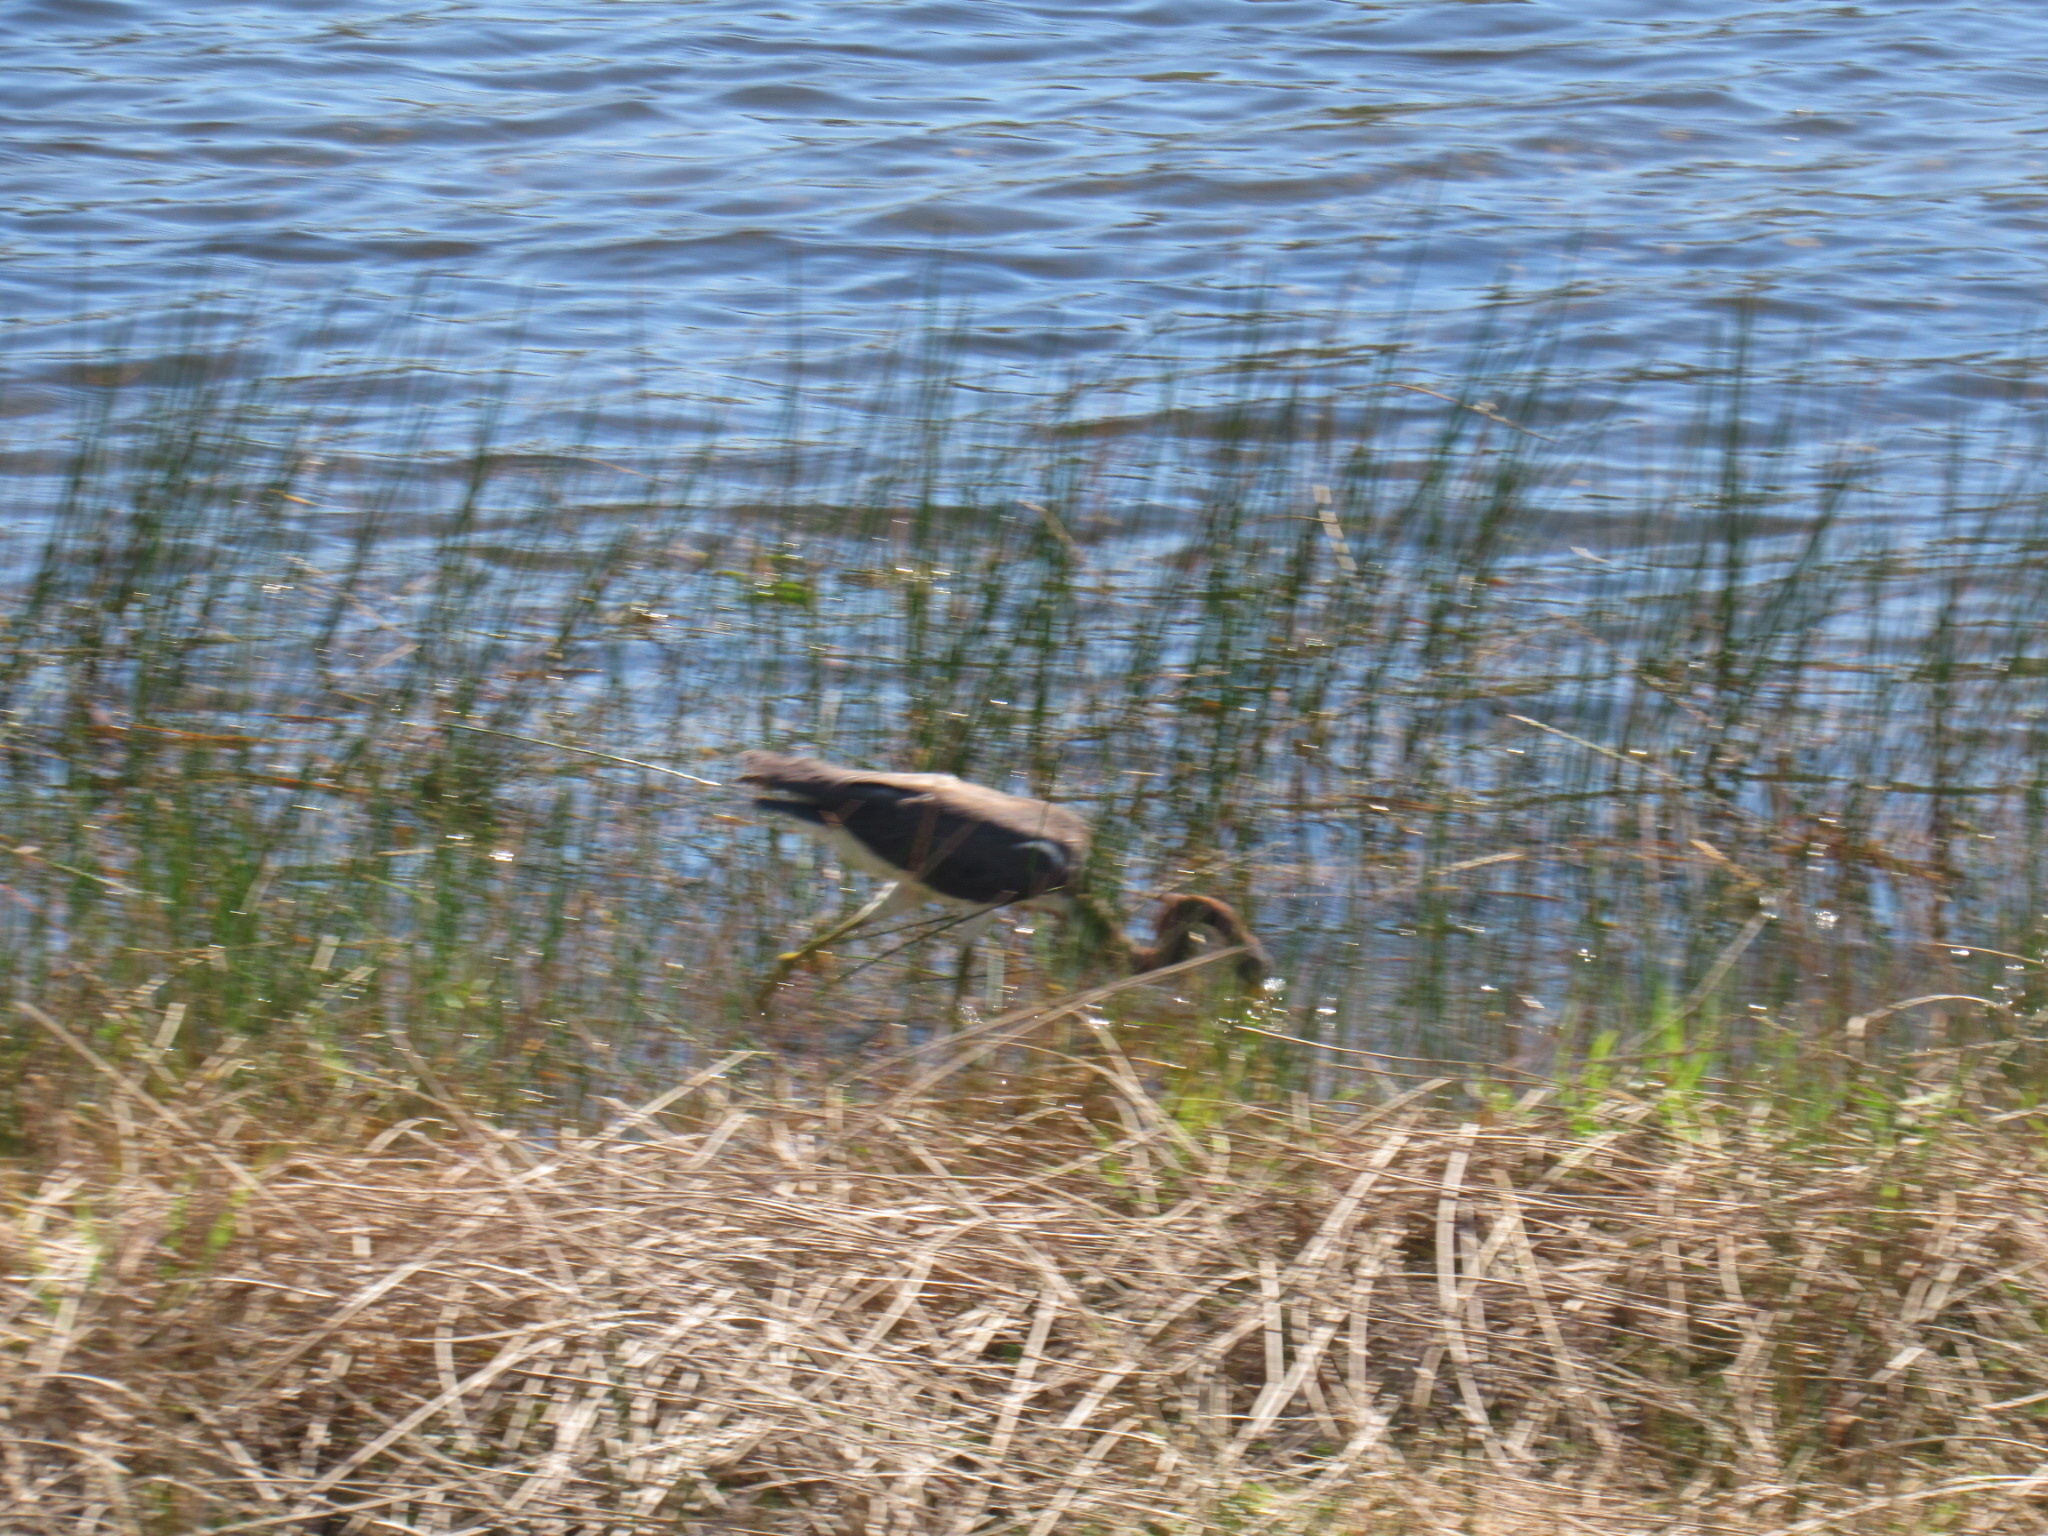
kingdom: Animalia
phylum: Chordata
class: Aves
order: Pelecaniformes
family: Ardeidae
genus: Egretta
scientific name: Egretta tricolor
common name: Tricolored heron
